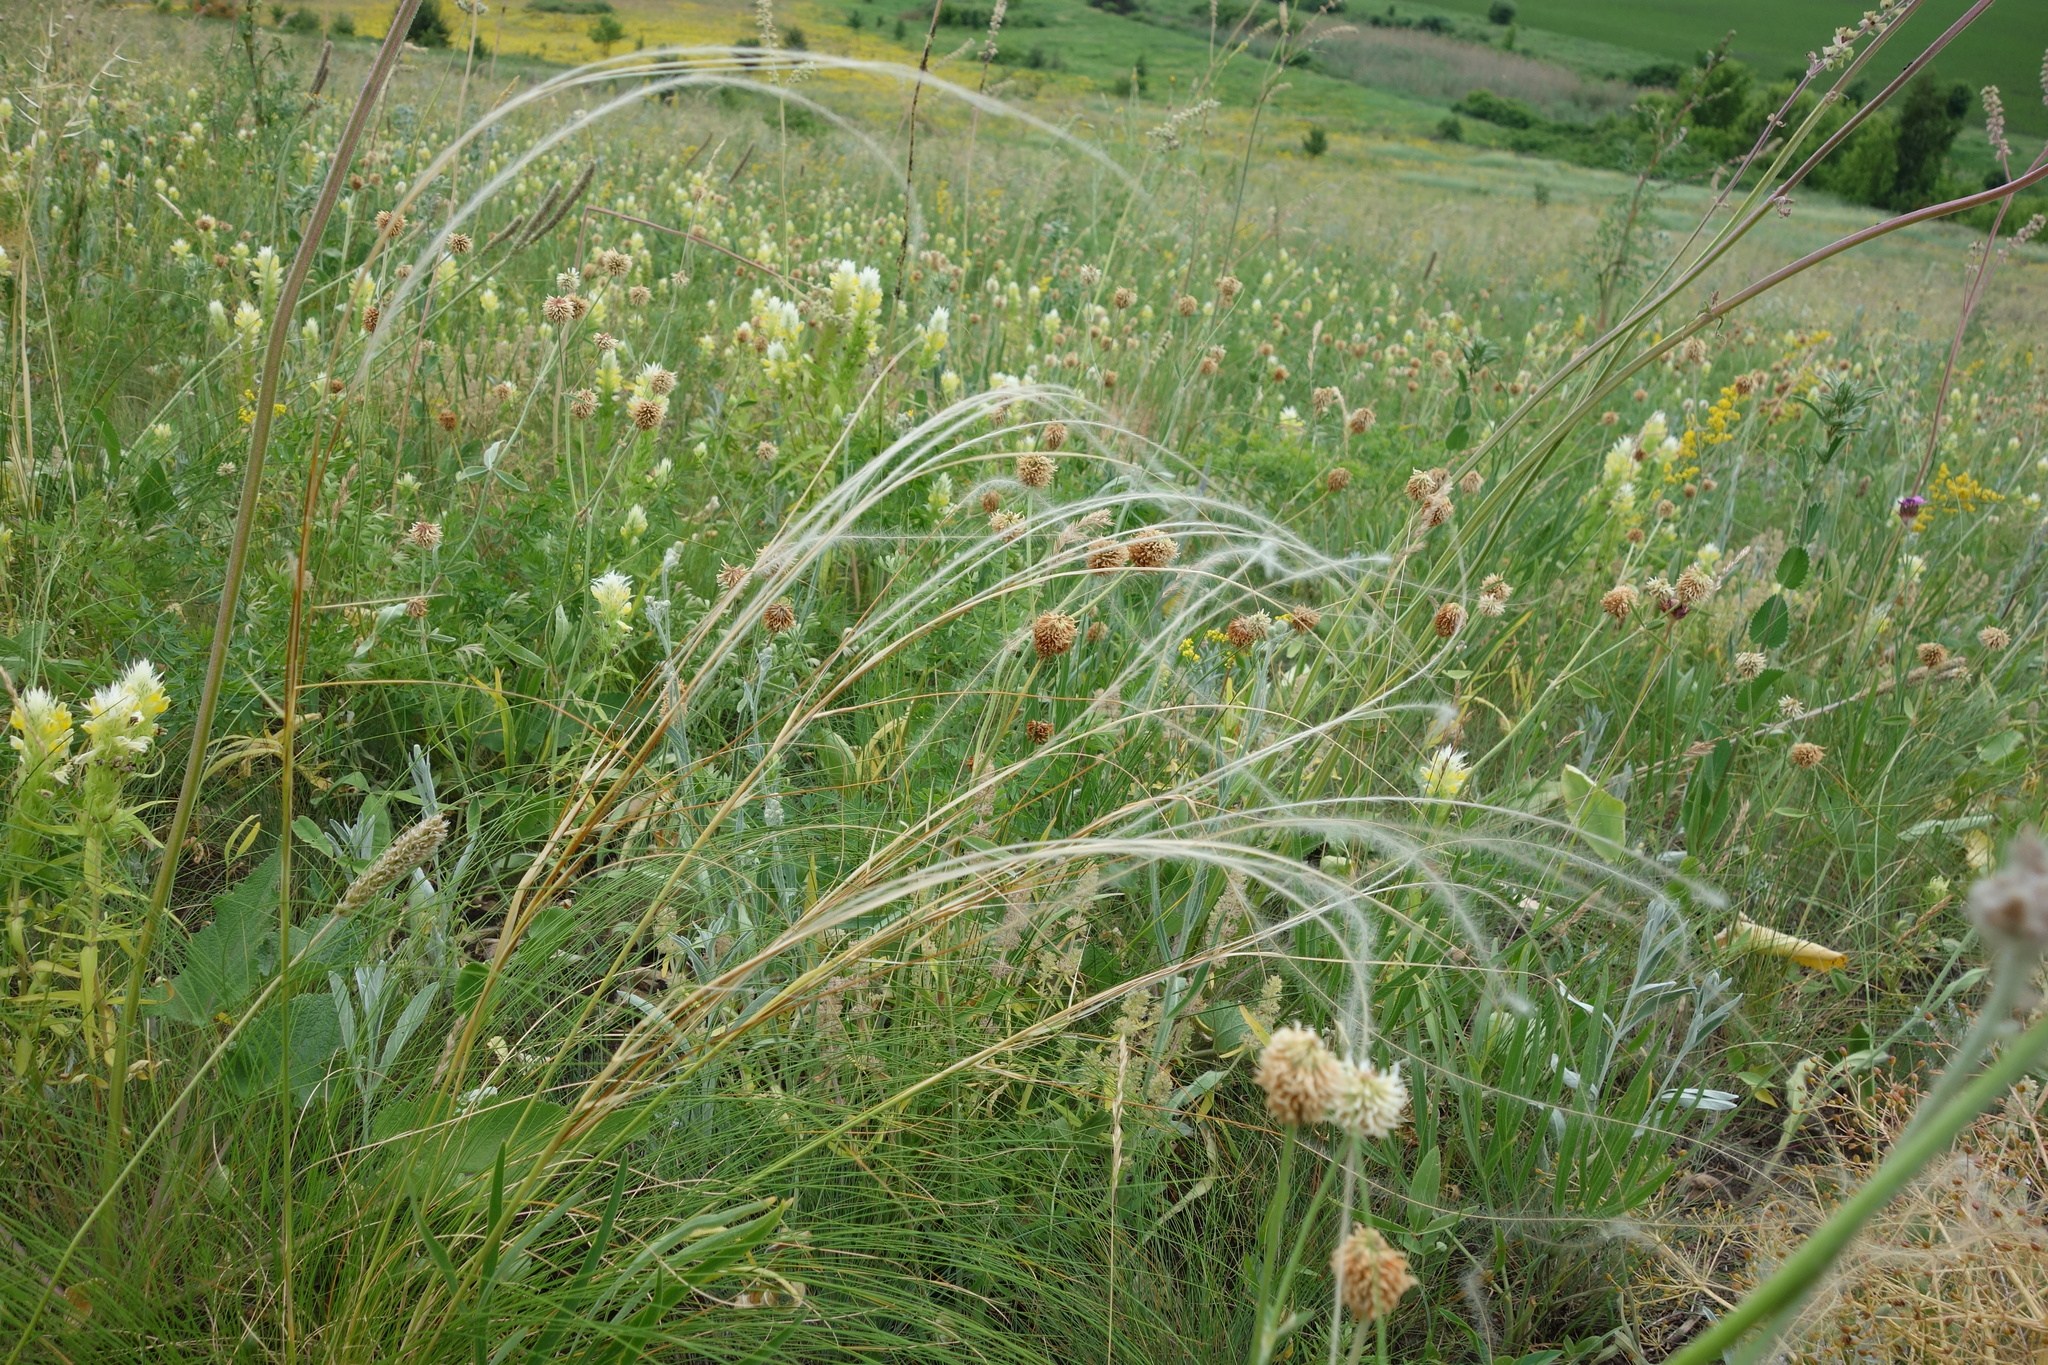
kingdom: Plantae
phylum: Tracheophyta
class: Liliopsida
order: Poales
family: Poaceae
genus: Stipa
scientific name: Stipa tirsa
